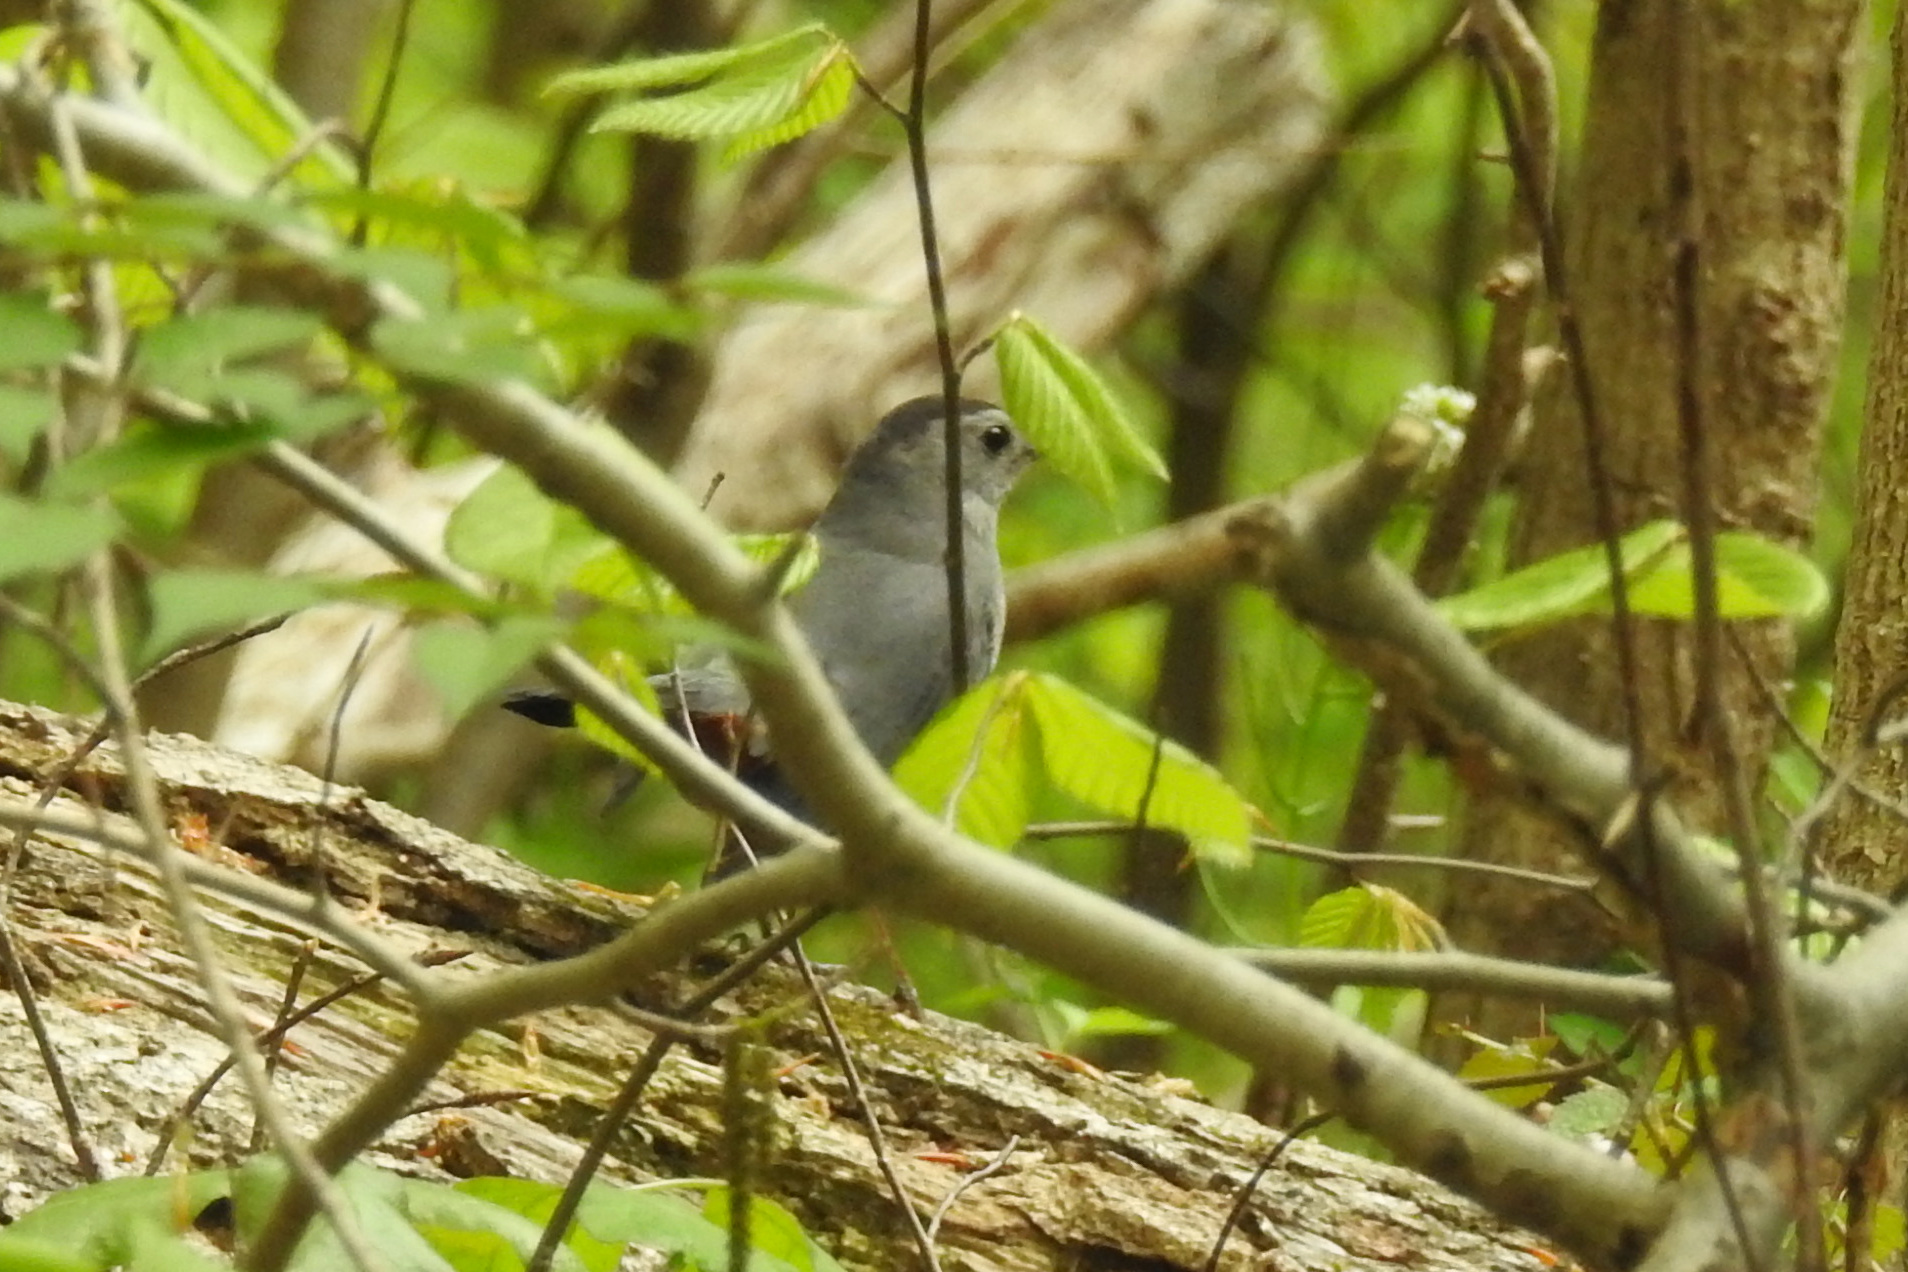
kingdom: Animalia
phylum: Chordata
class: Aves
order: Passeriformes
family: Mimidae
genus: Dumetella
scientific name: Dumetella carolinensis
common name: Gray catbird
